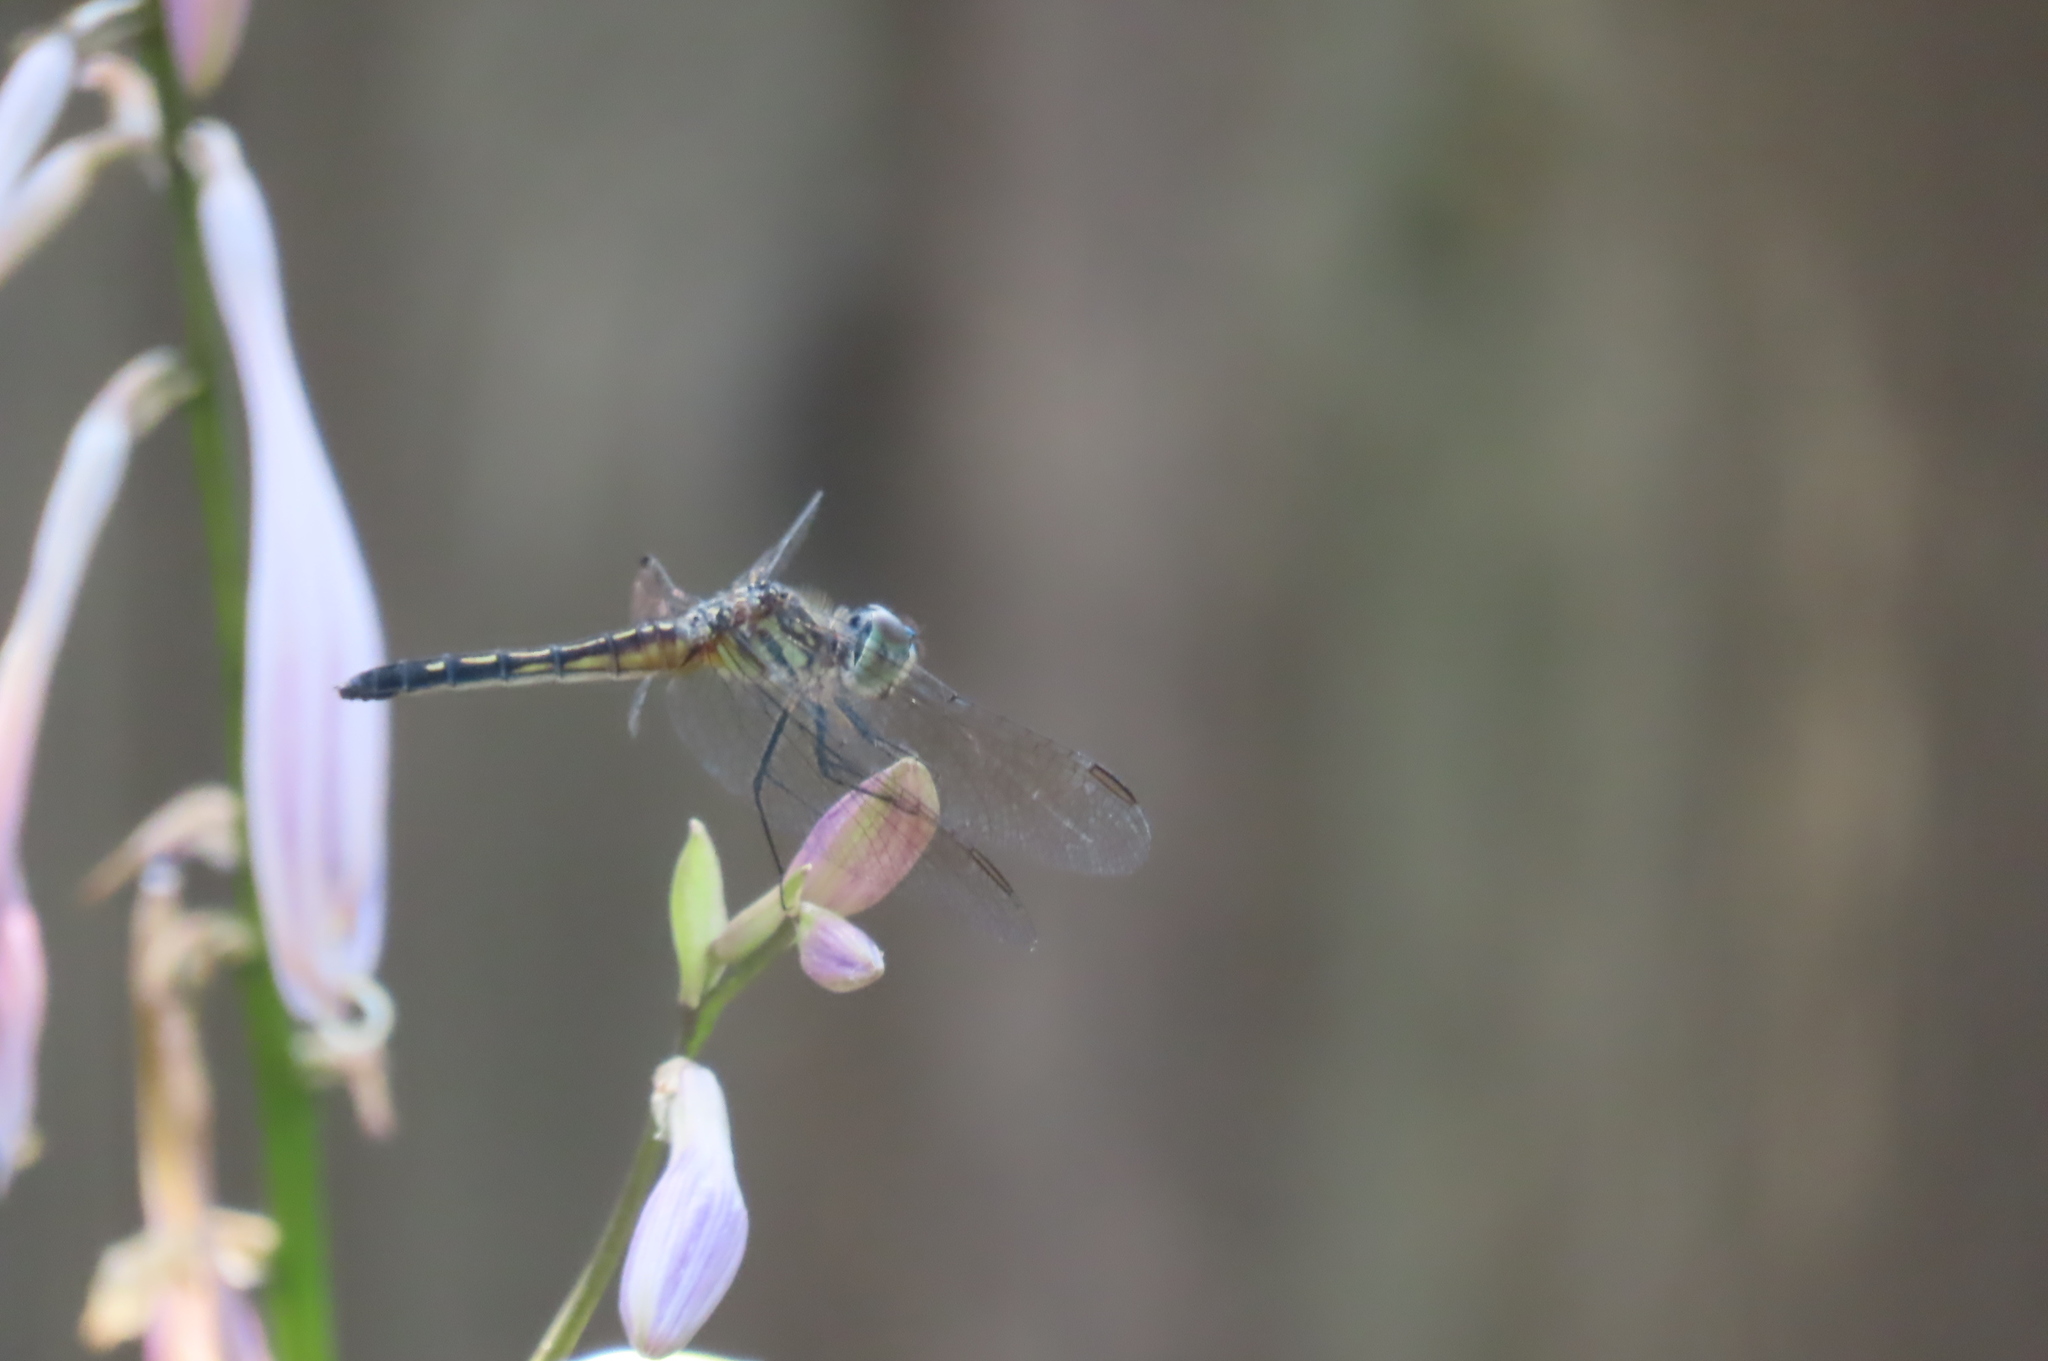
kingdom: Animalia
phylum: Arthropoda
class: Insecta
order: Odonata
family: Libellulidae
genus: Pachydiplax
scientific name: Pachydiplax longipennis
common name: Blue dasher
